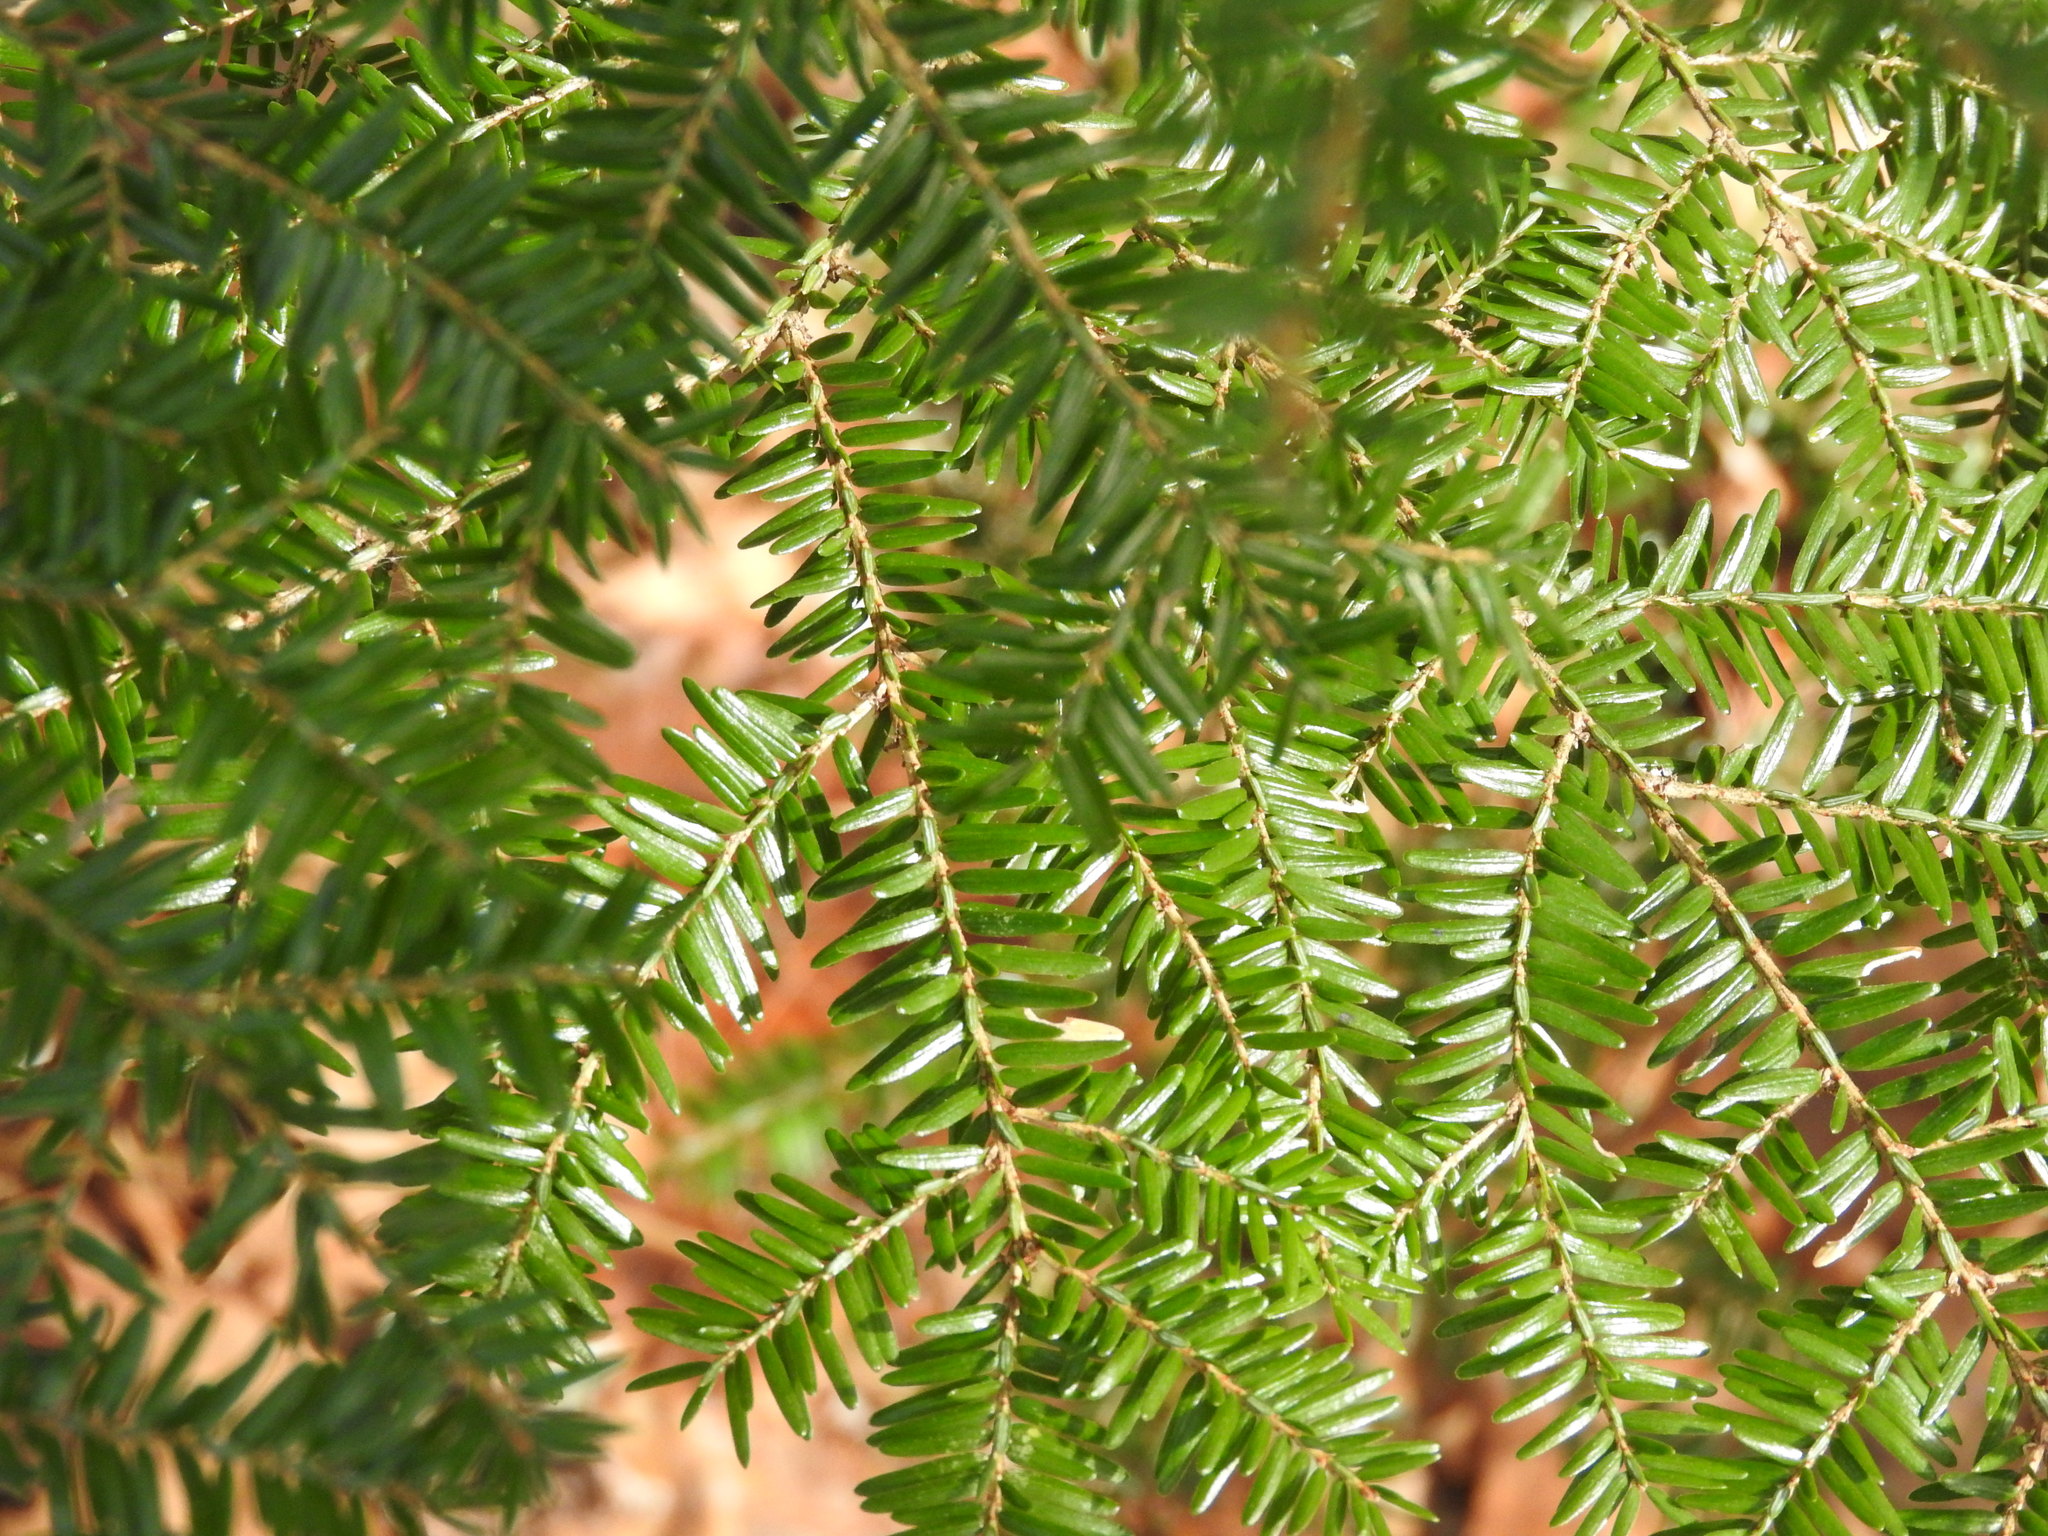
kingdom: Plantae
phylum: Tracheophyta
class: Pinopsida
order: Pinales
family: Pinaceae
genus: Tsuga
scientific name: Tsuga canadensis
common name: Eastern hemlock
